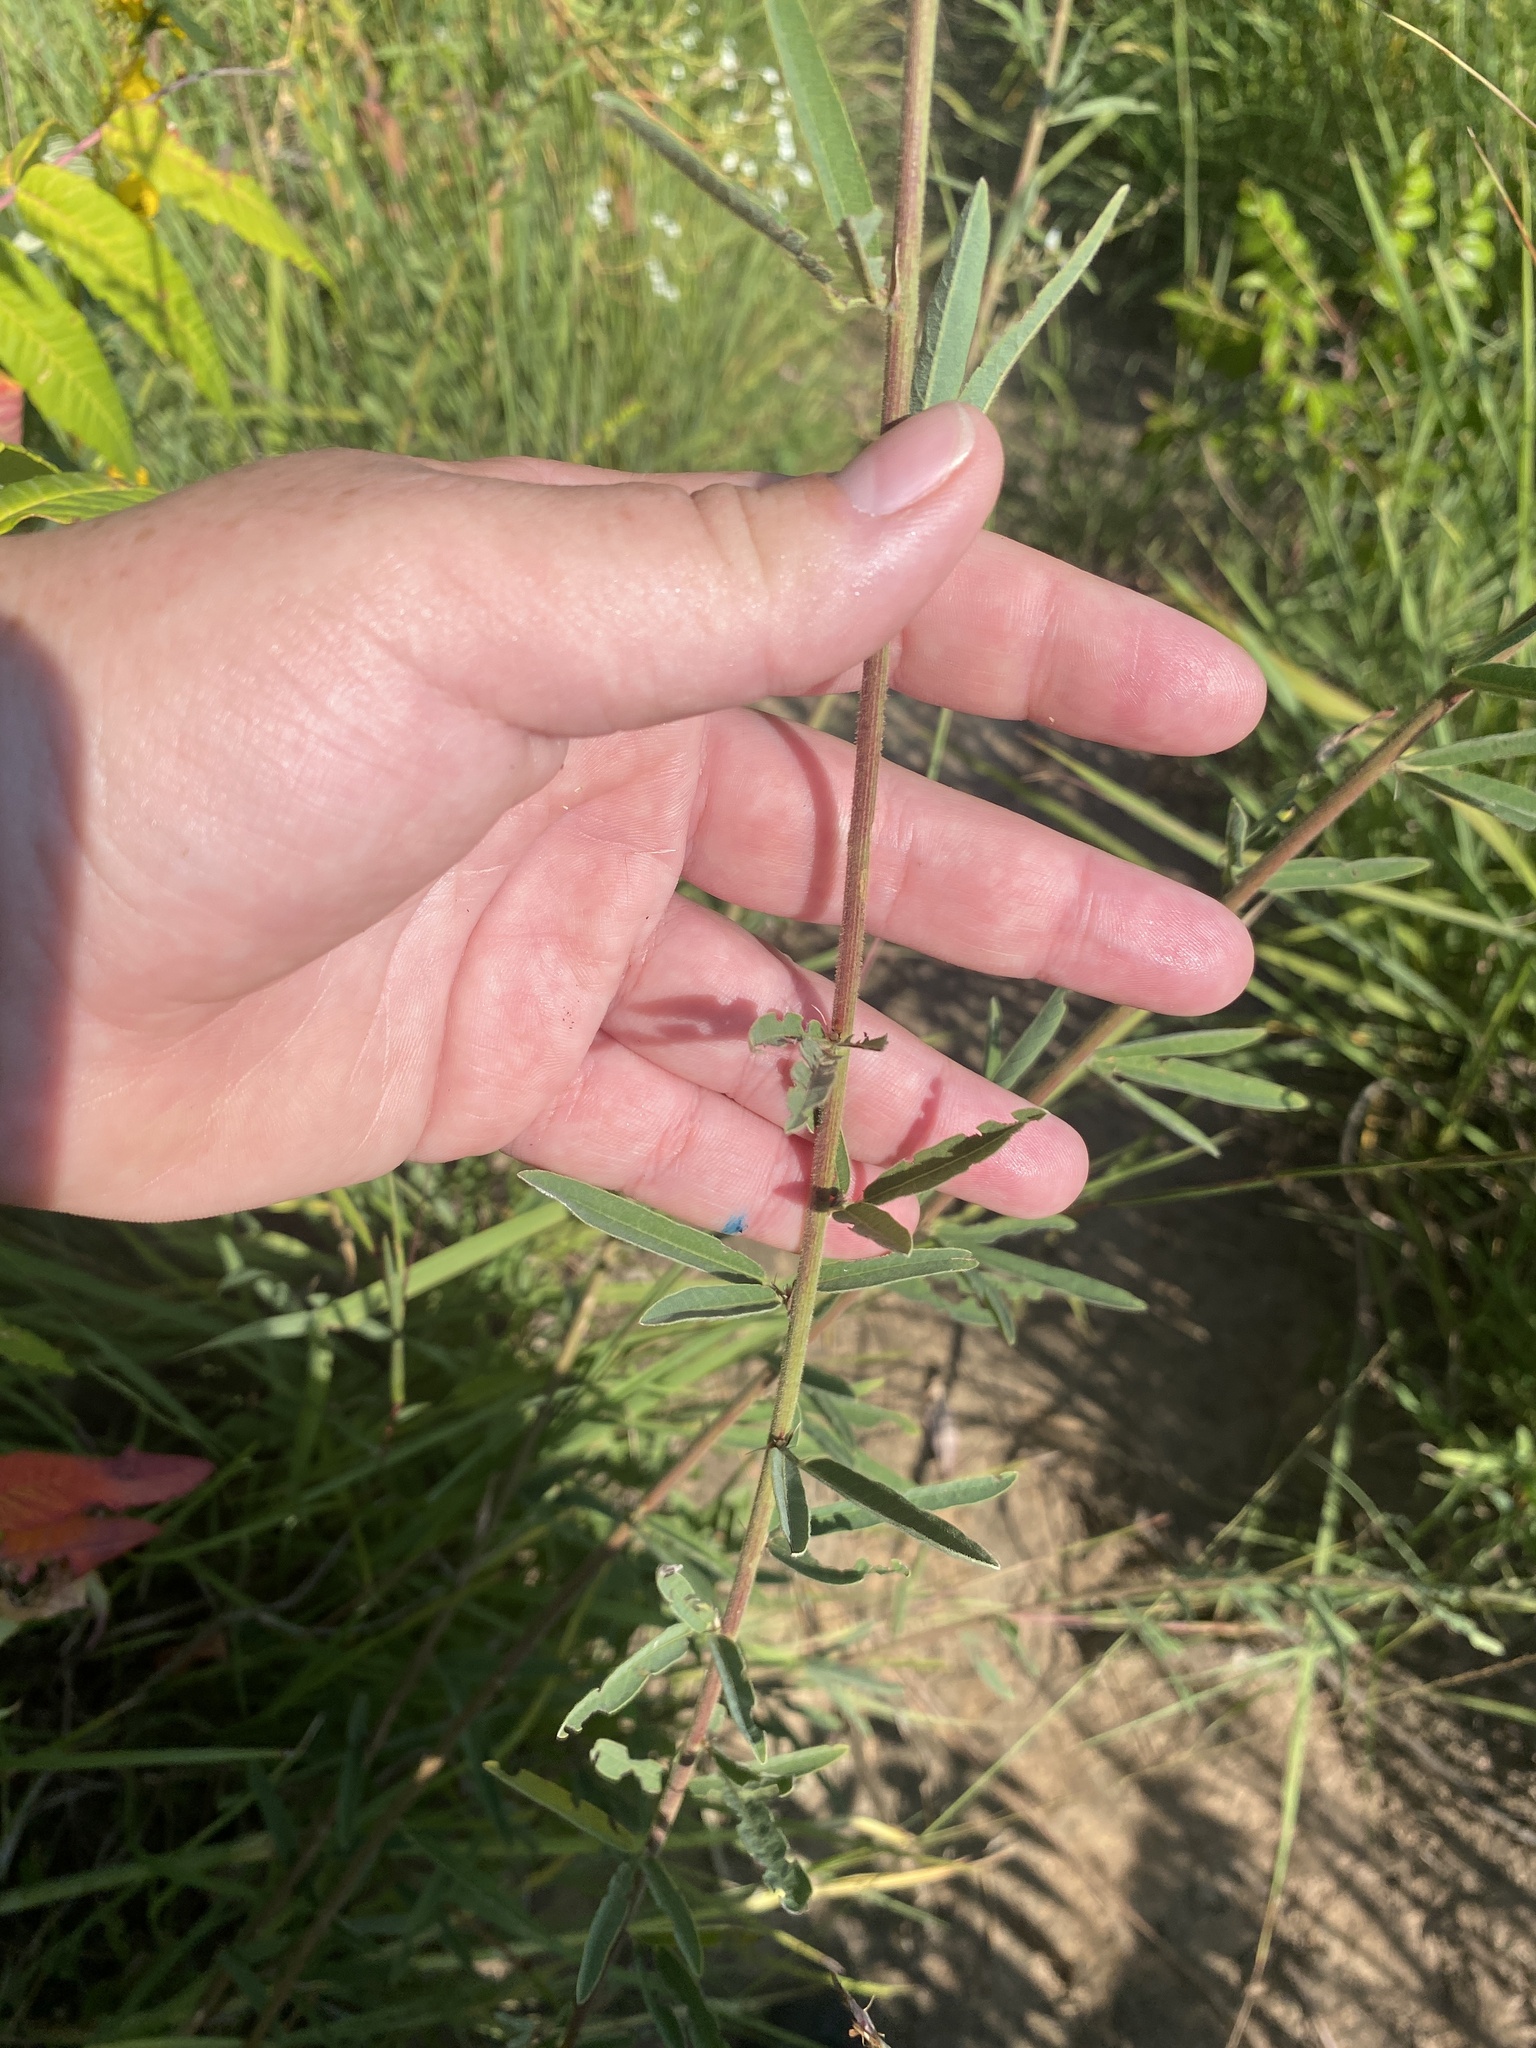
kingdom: Plantae
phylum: Tracheophyta
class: Magnoliopsida
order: Fabales
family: Fabaceae
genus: Desmodium
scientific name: Desmodium sessilifolium
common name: Sessile tick-clover
